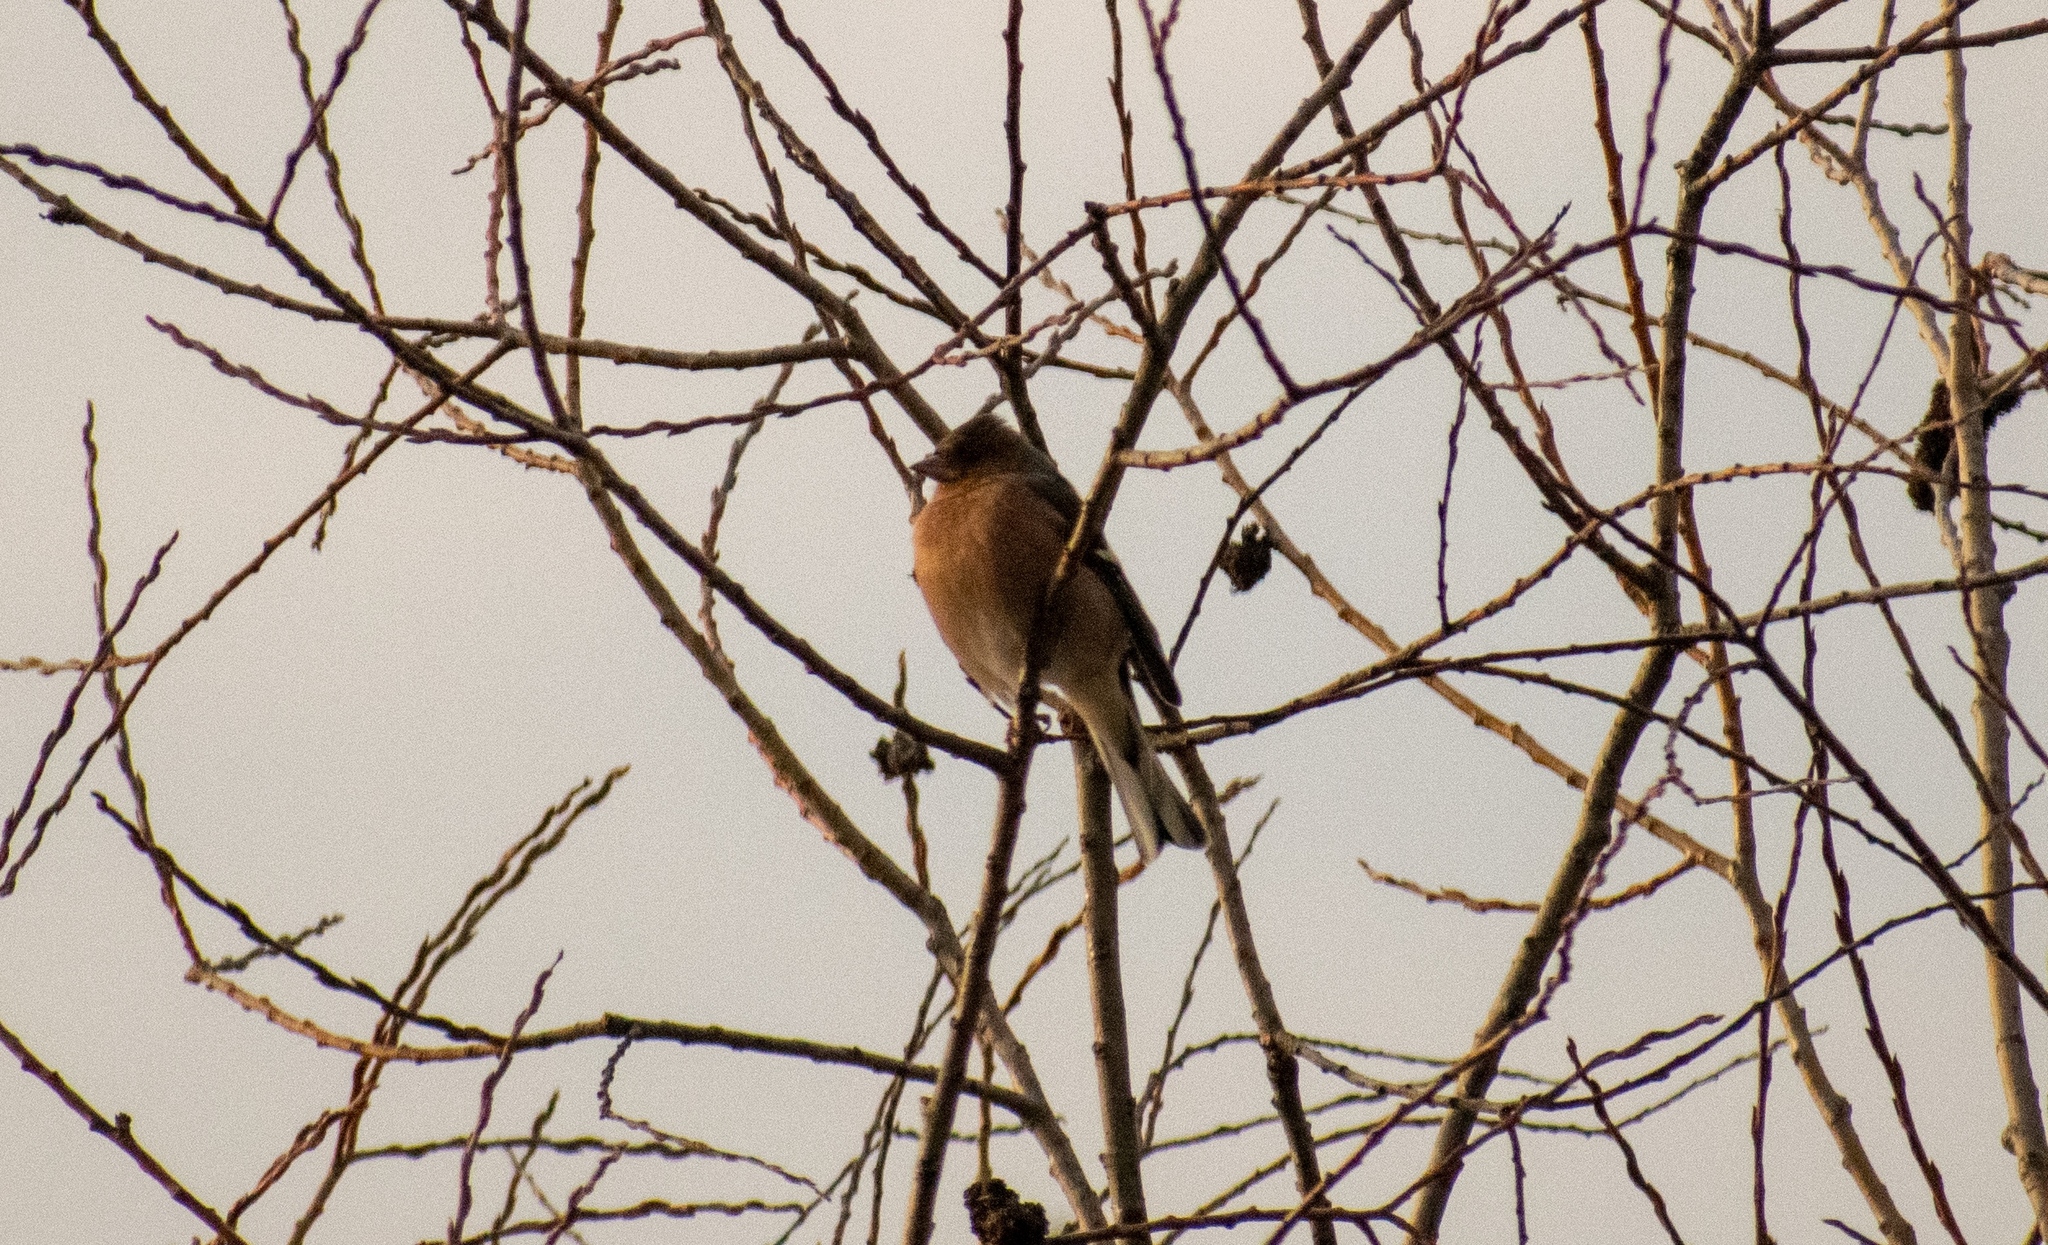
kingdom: Animalia
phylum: Chordata
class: Aves
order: Passeriformes
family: Fringillidae
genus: Fringilla
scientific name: Fringilla coelebs
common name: Common chaffinch
